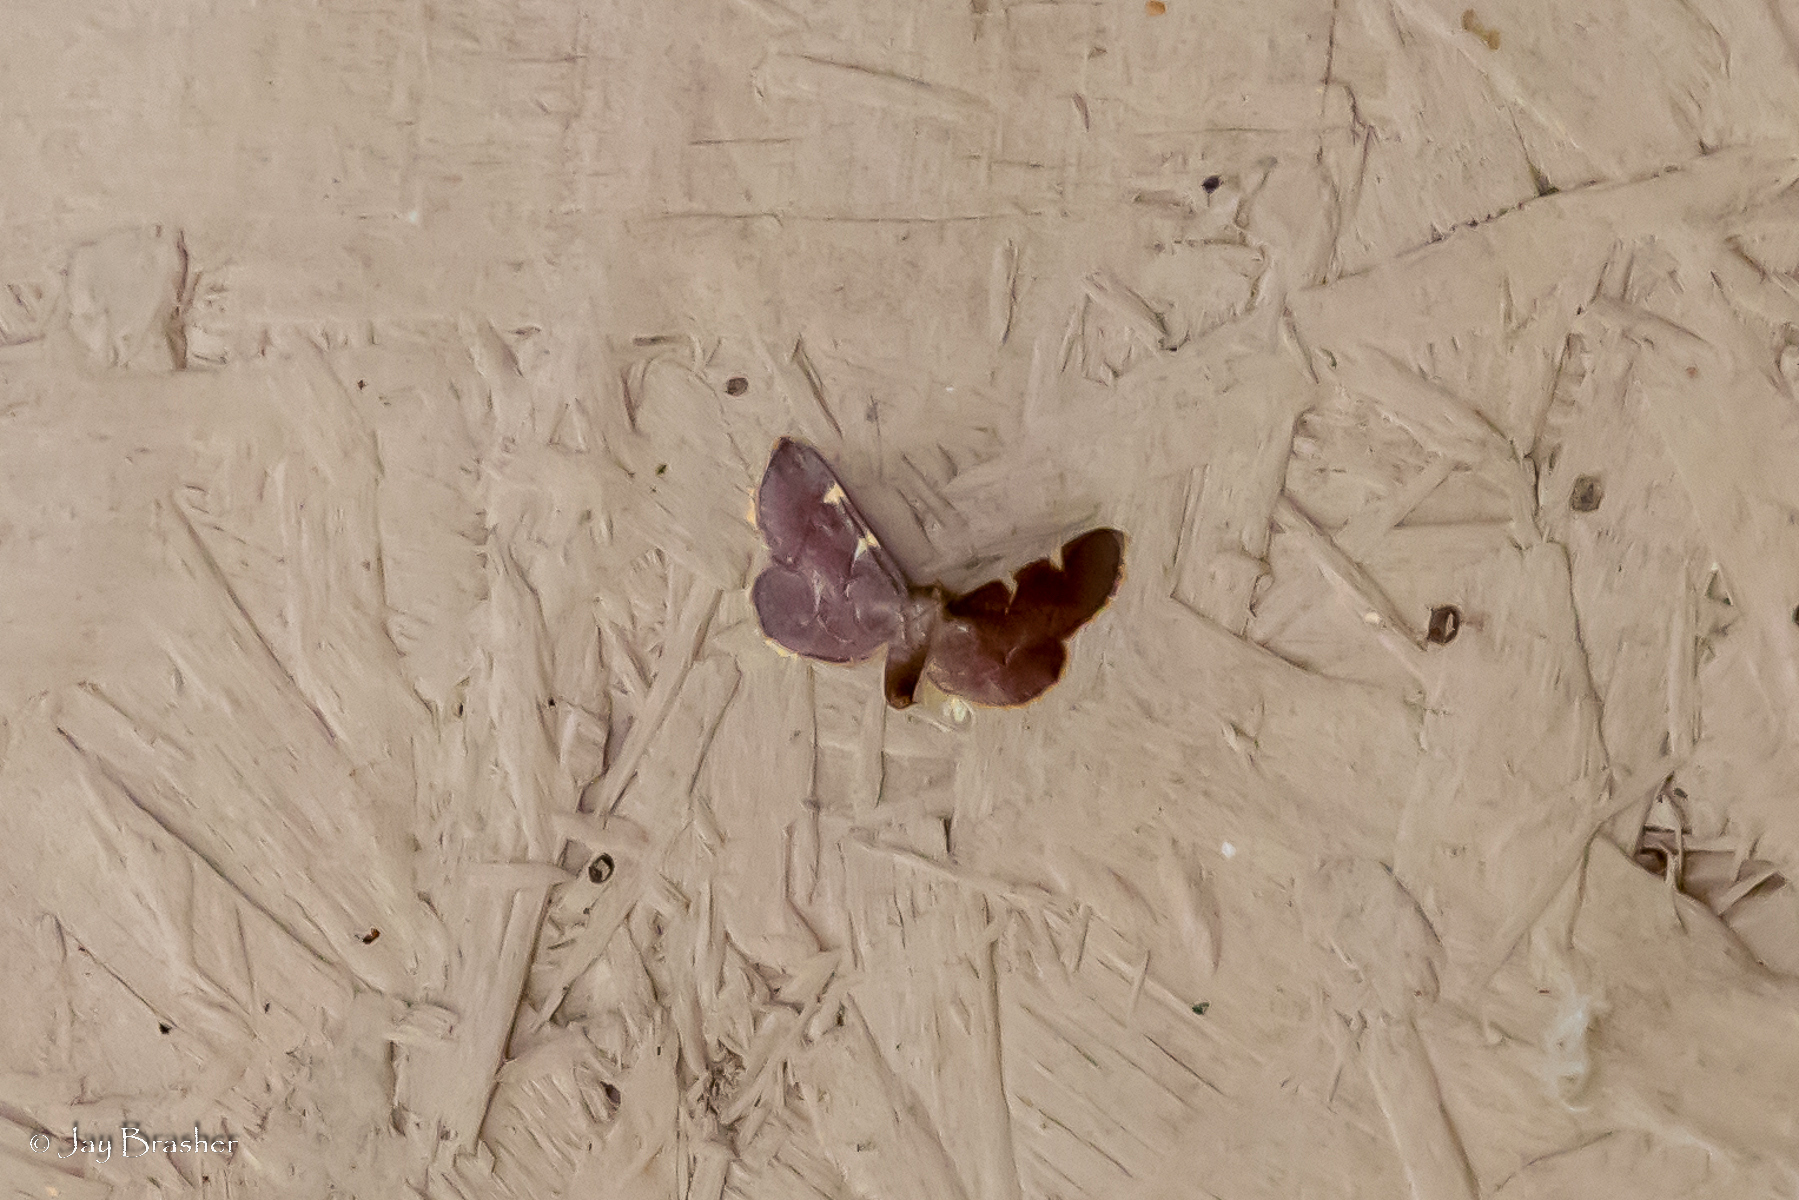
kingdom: Animalia
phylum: Arthropoda
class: Insecta
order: Lepidoptera
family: Pyralidae
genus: Hypsopygia
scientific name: Hypsopygia olinalis
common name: Yellow-fringed dolichomia moth
